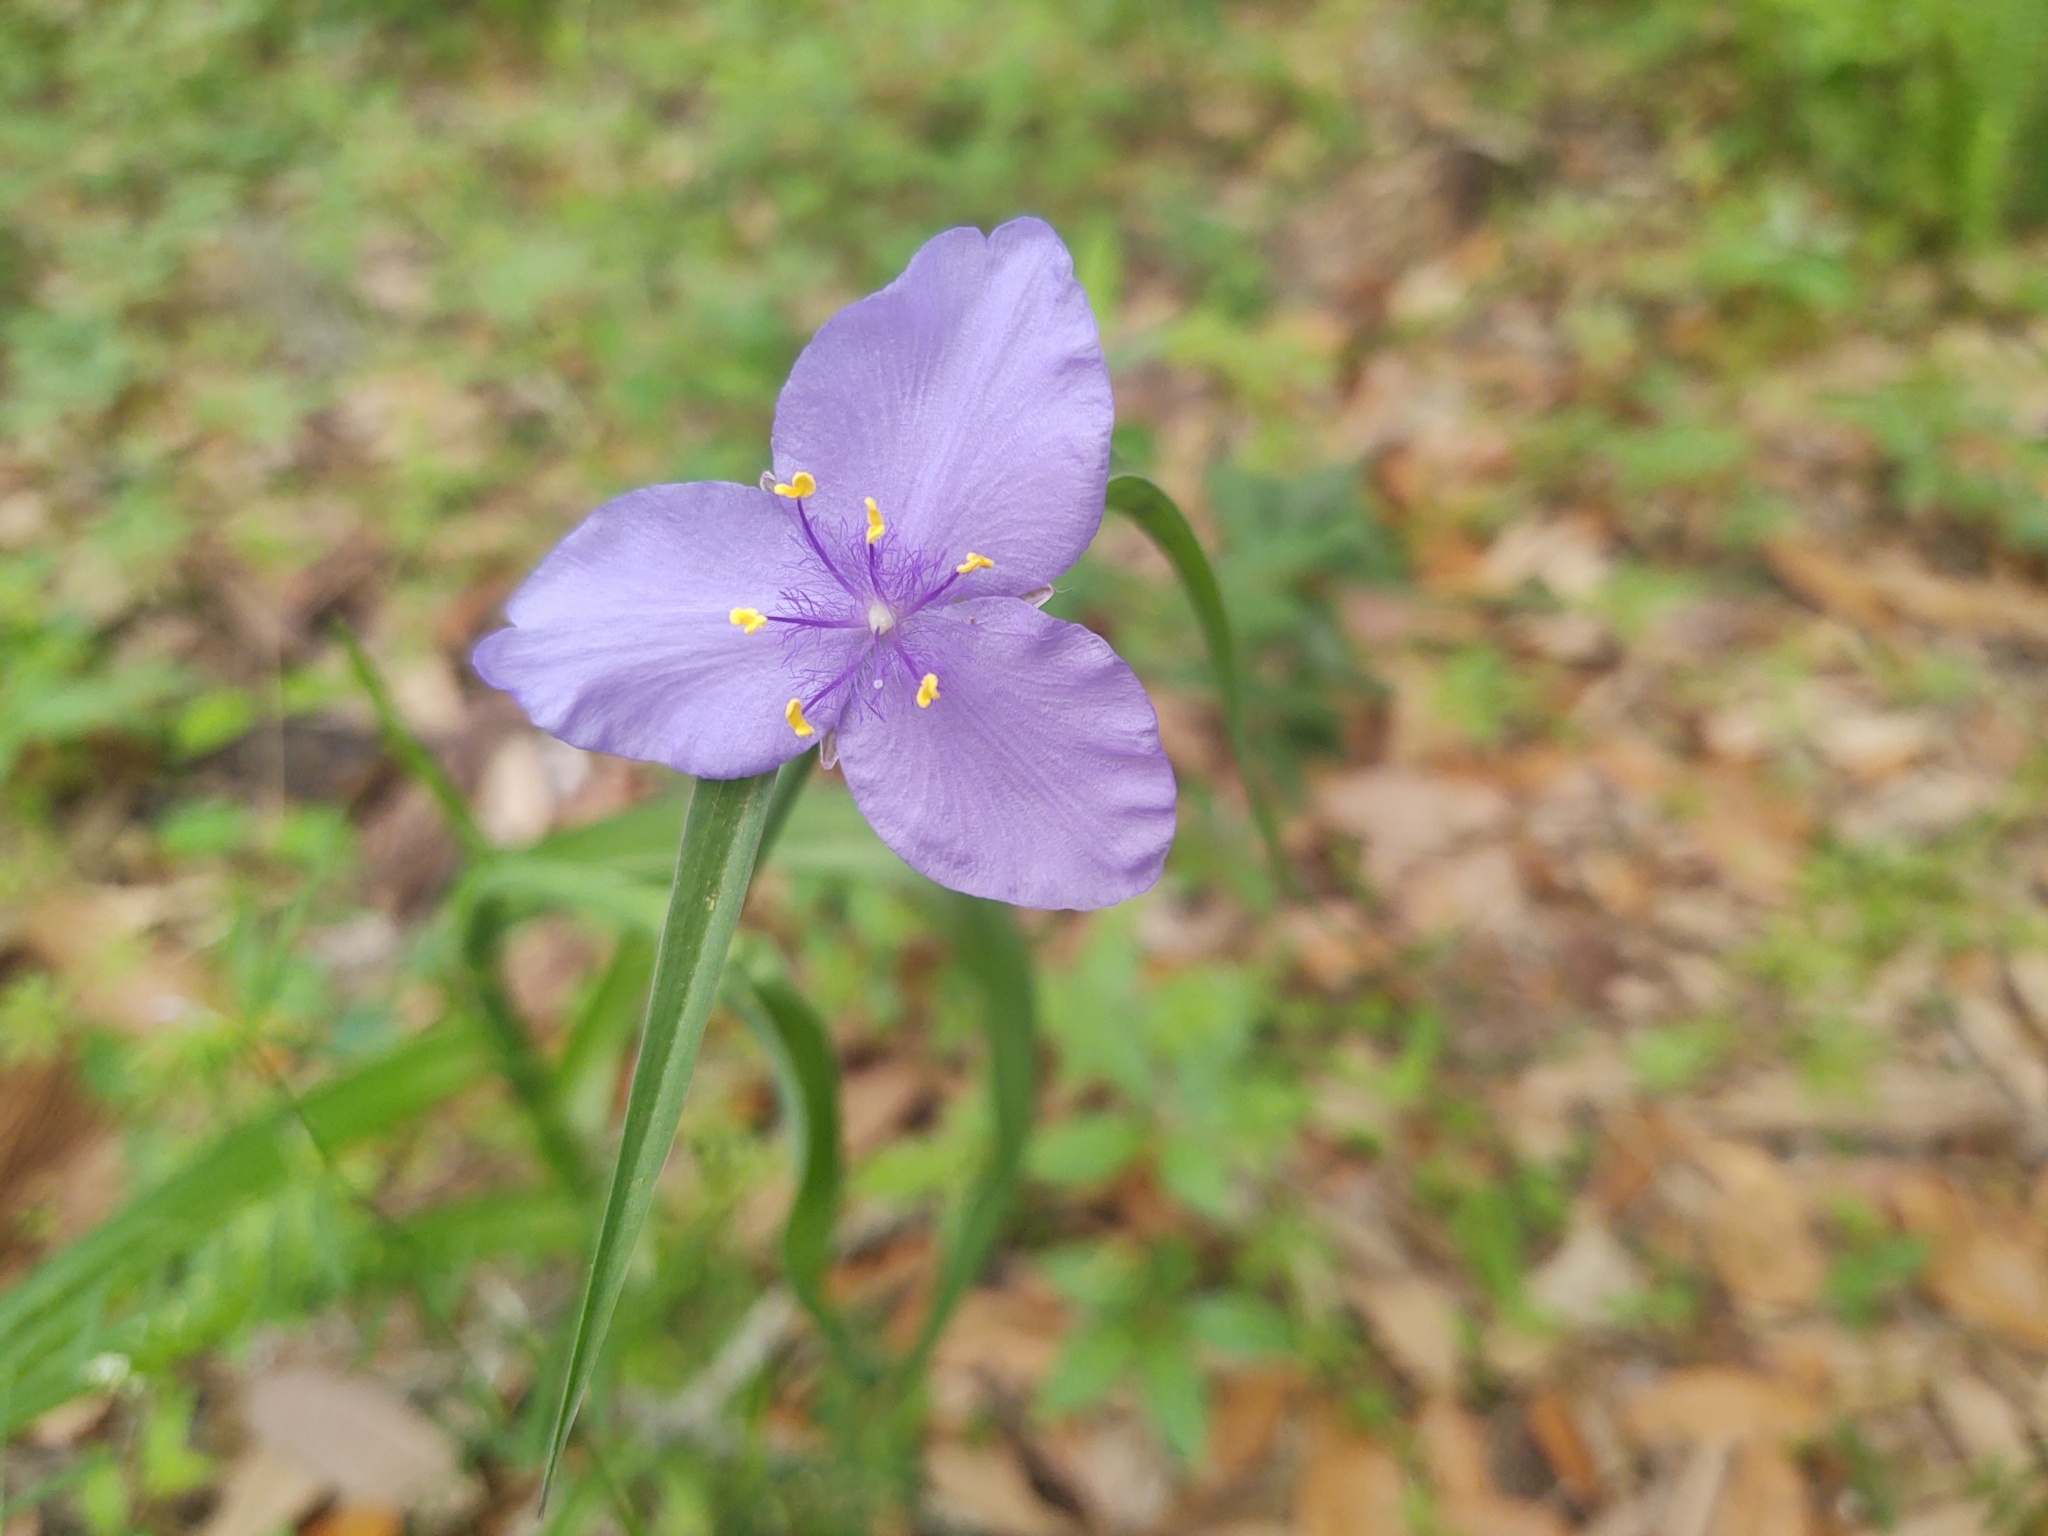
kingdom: Plantae
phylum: Tracheophyta
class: Liliopsida
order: Commelinales
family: Commelinaceae
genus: Tradescantia
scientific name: Tradescantia ohiensis
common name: Ohio spiderwort
